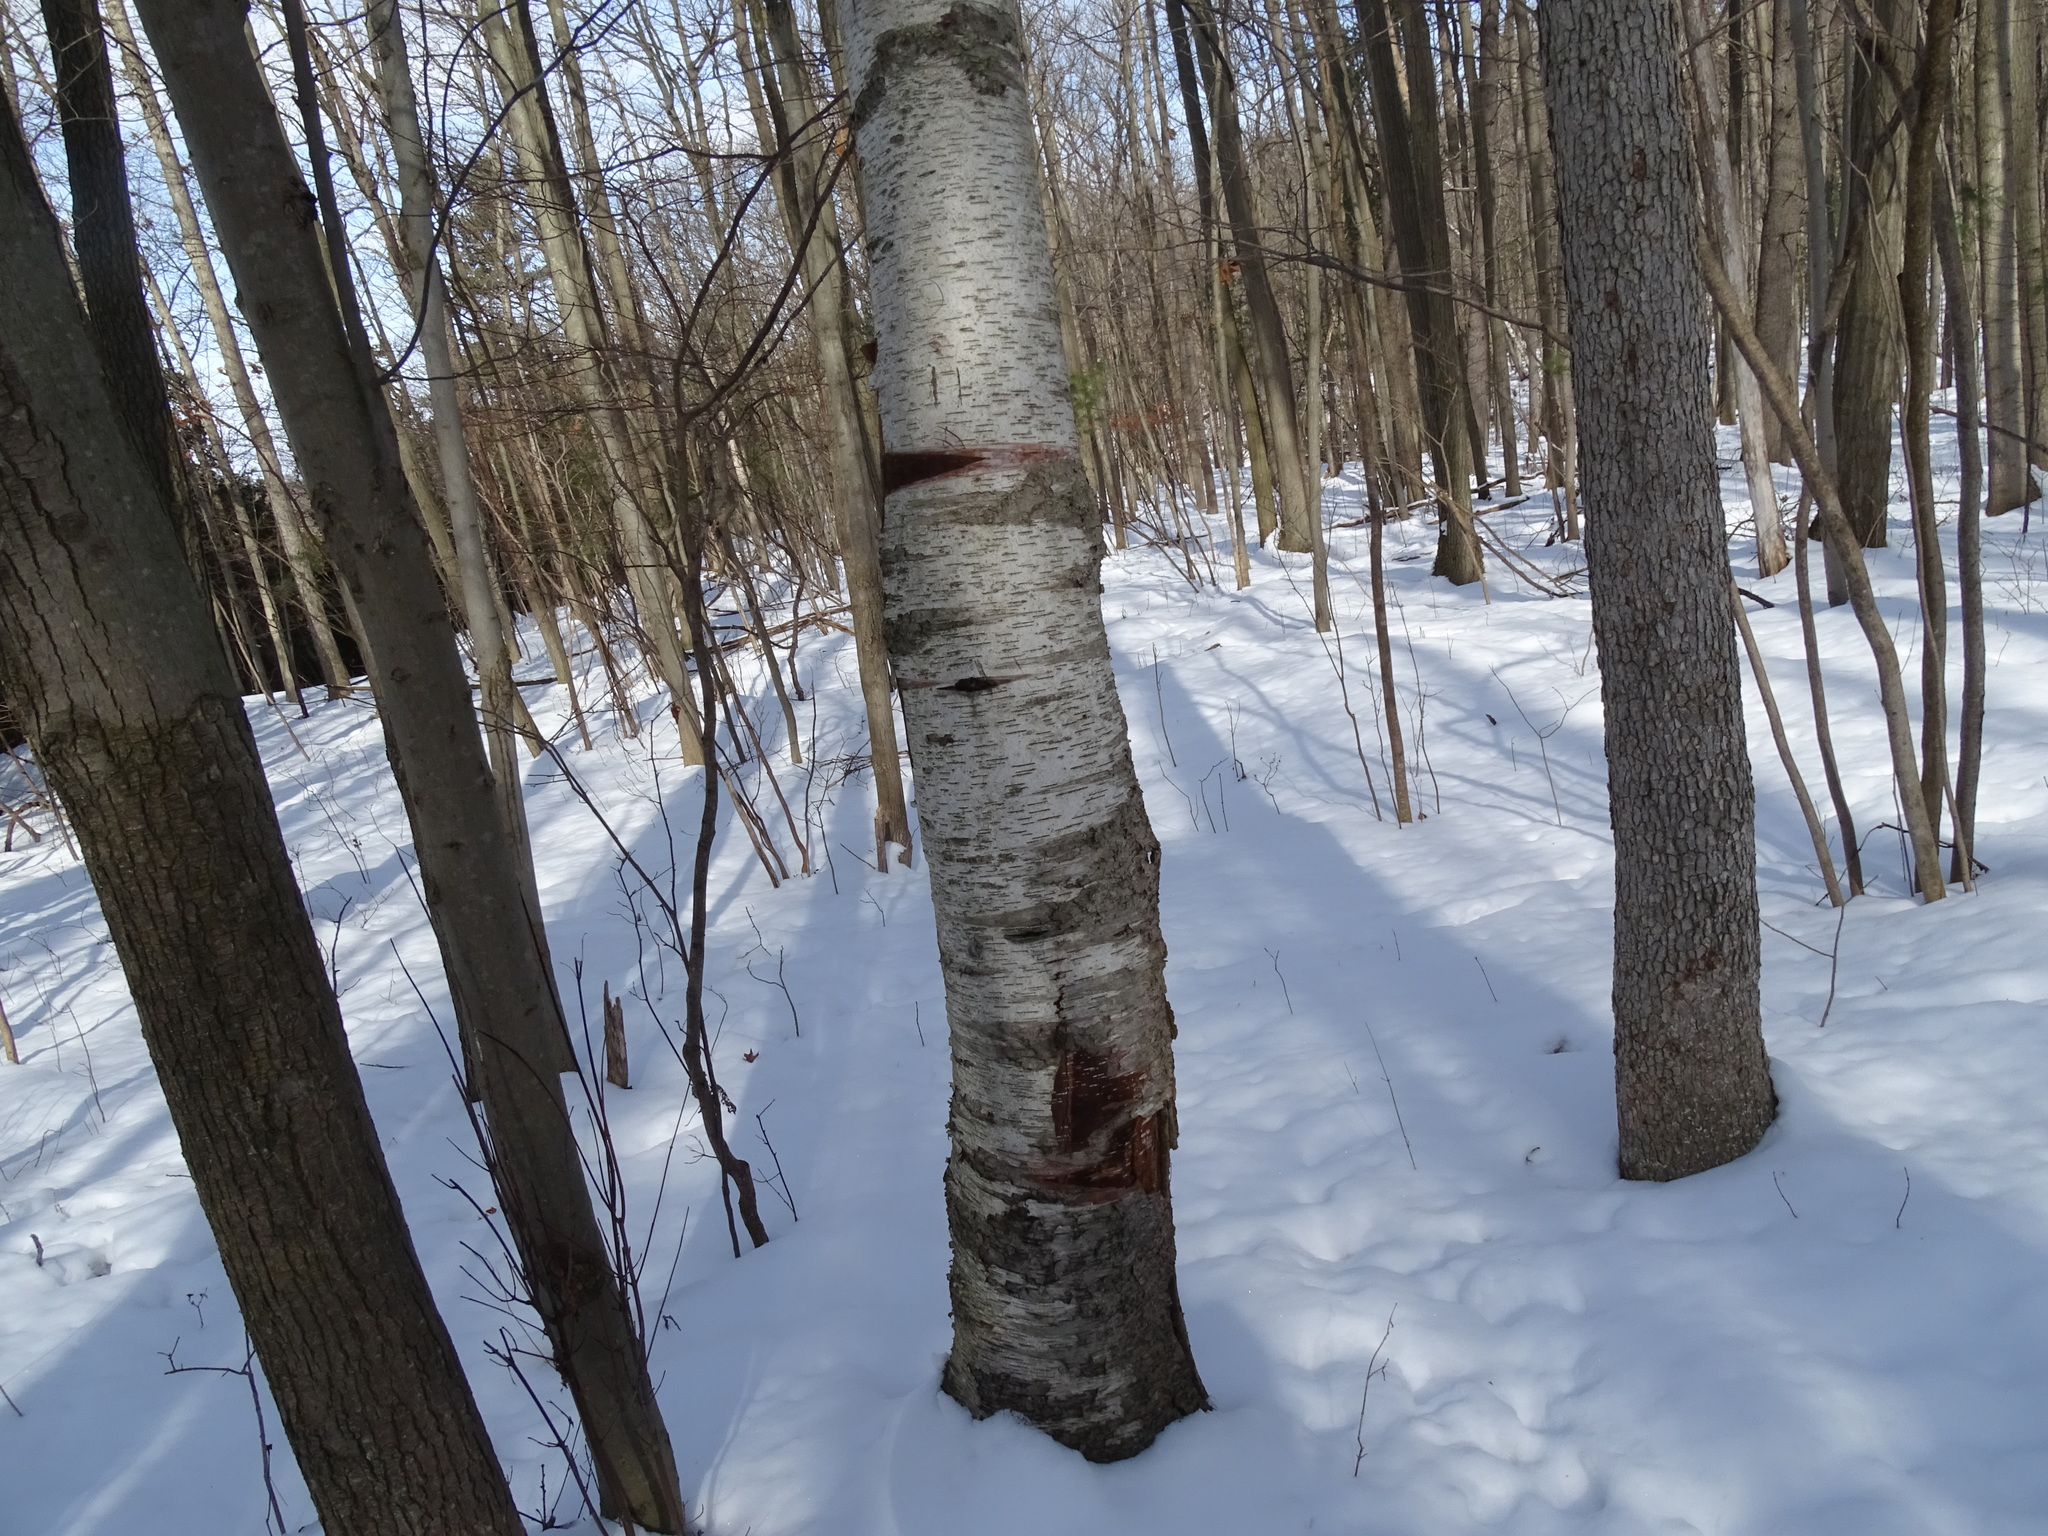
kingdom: Plantae
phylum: Tracheophyta
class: Magnoliopsida
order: Fagales
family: Betulaceae
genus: Betula
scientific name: Betula papyrifera
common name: Paper birch
